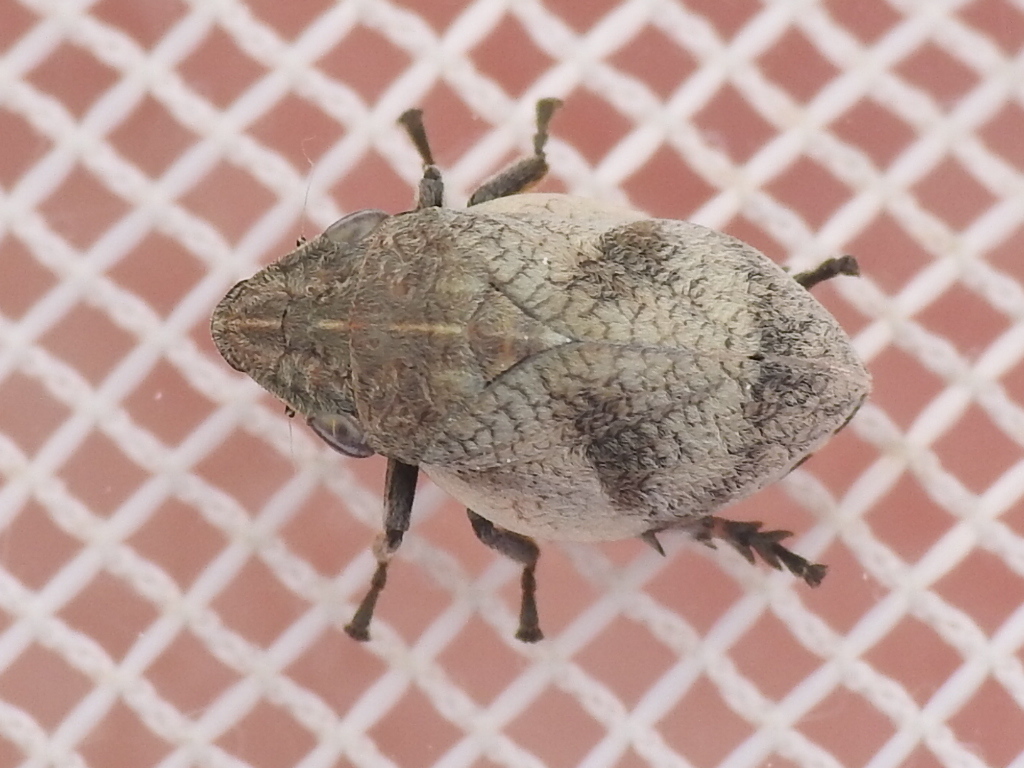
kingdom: Animalia
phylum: Arthropoda
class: Insecta
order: Hemiptera
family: Aphrophoridae
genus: Lepyronia
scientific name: Lepyronia gibbosa
